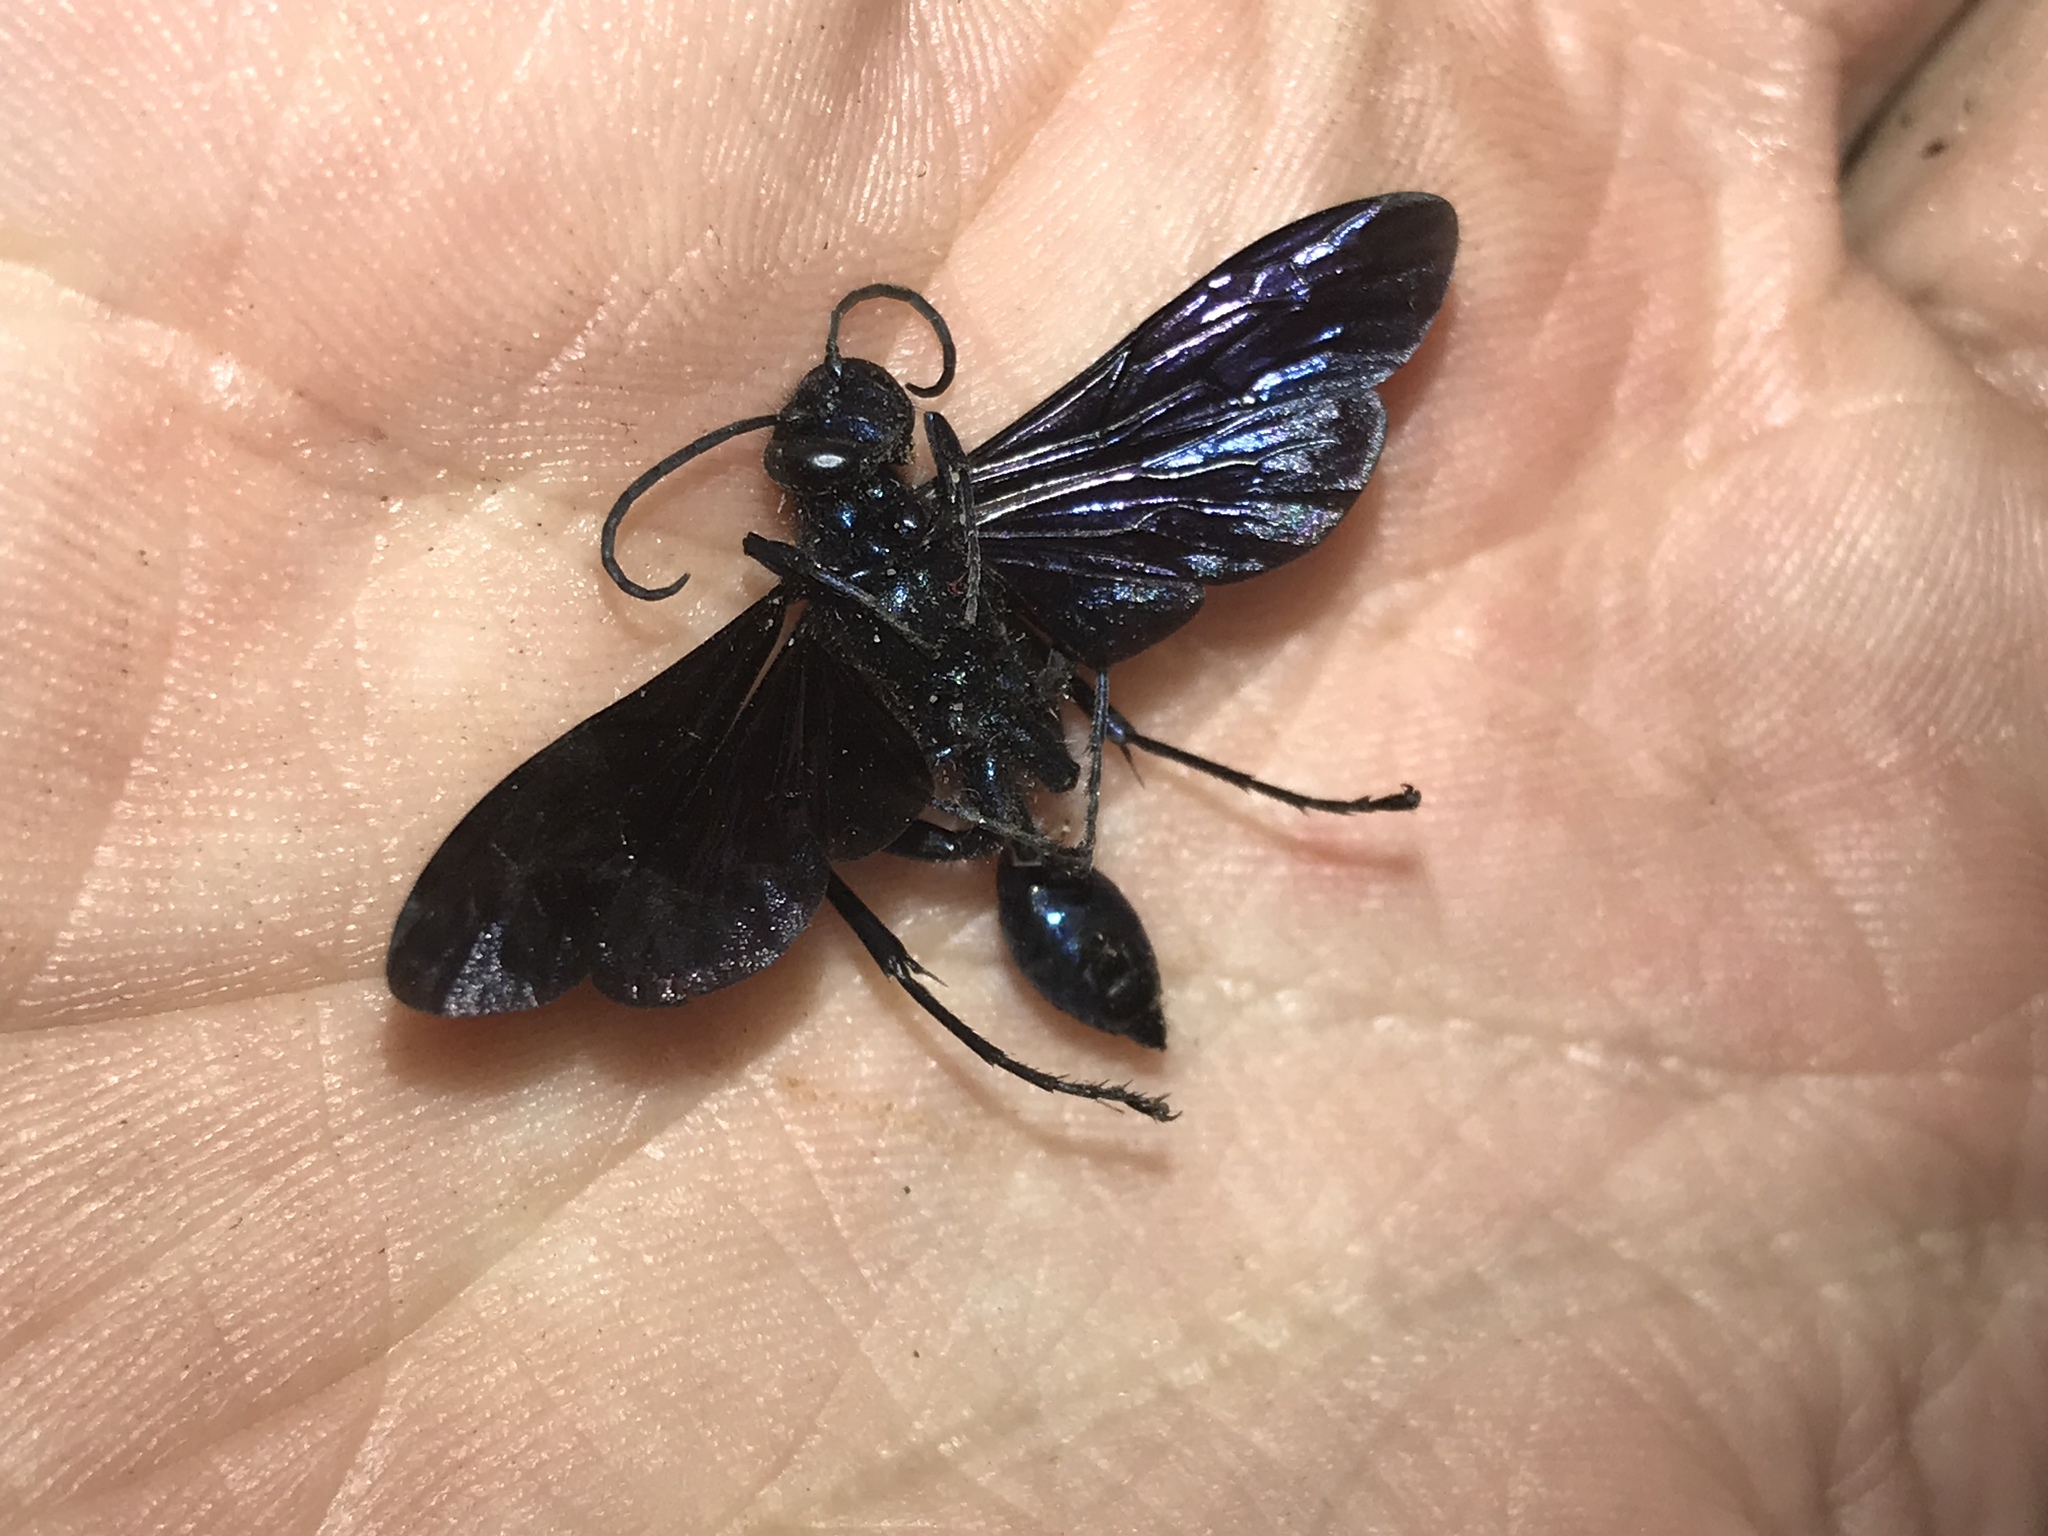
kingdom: Animalia
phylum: Arthropoda
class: Insecta
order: Hymenoptera
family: Sphecidae
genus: Chalybion
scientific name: Chalybion californicum
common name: Mud dauber
